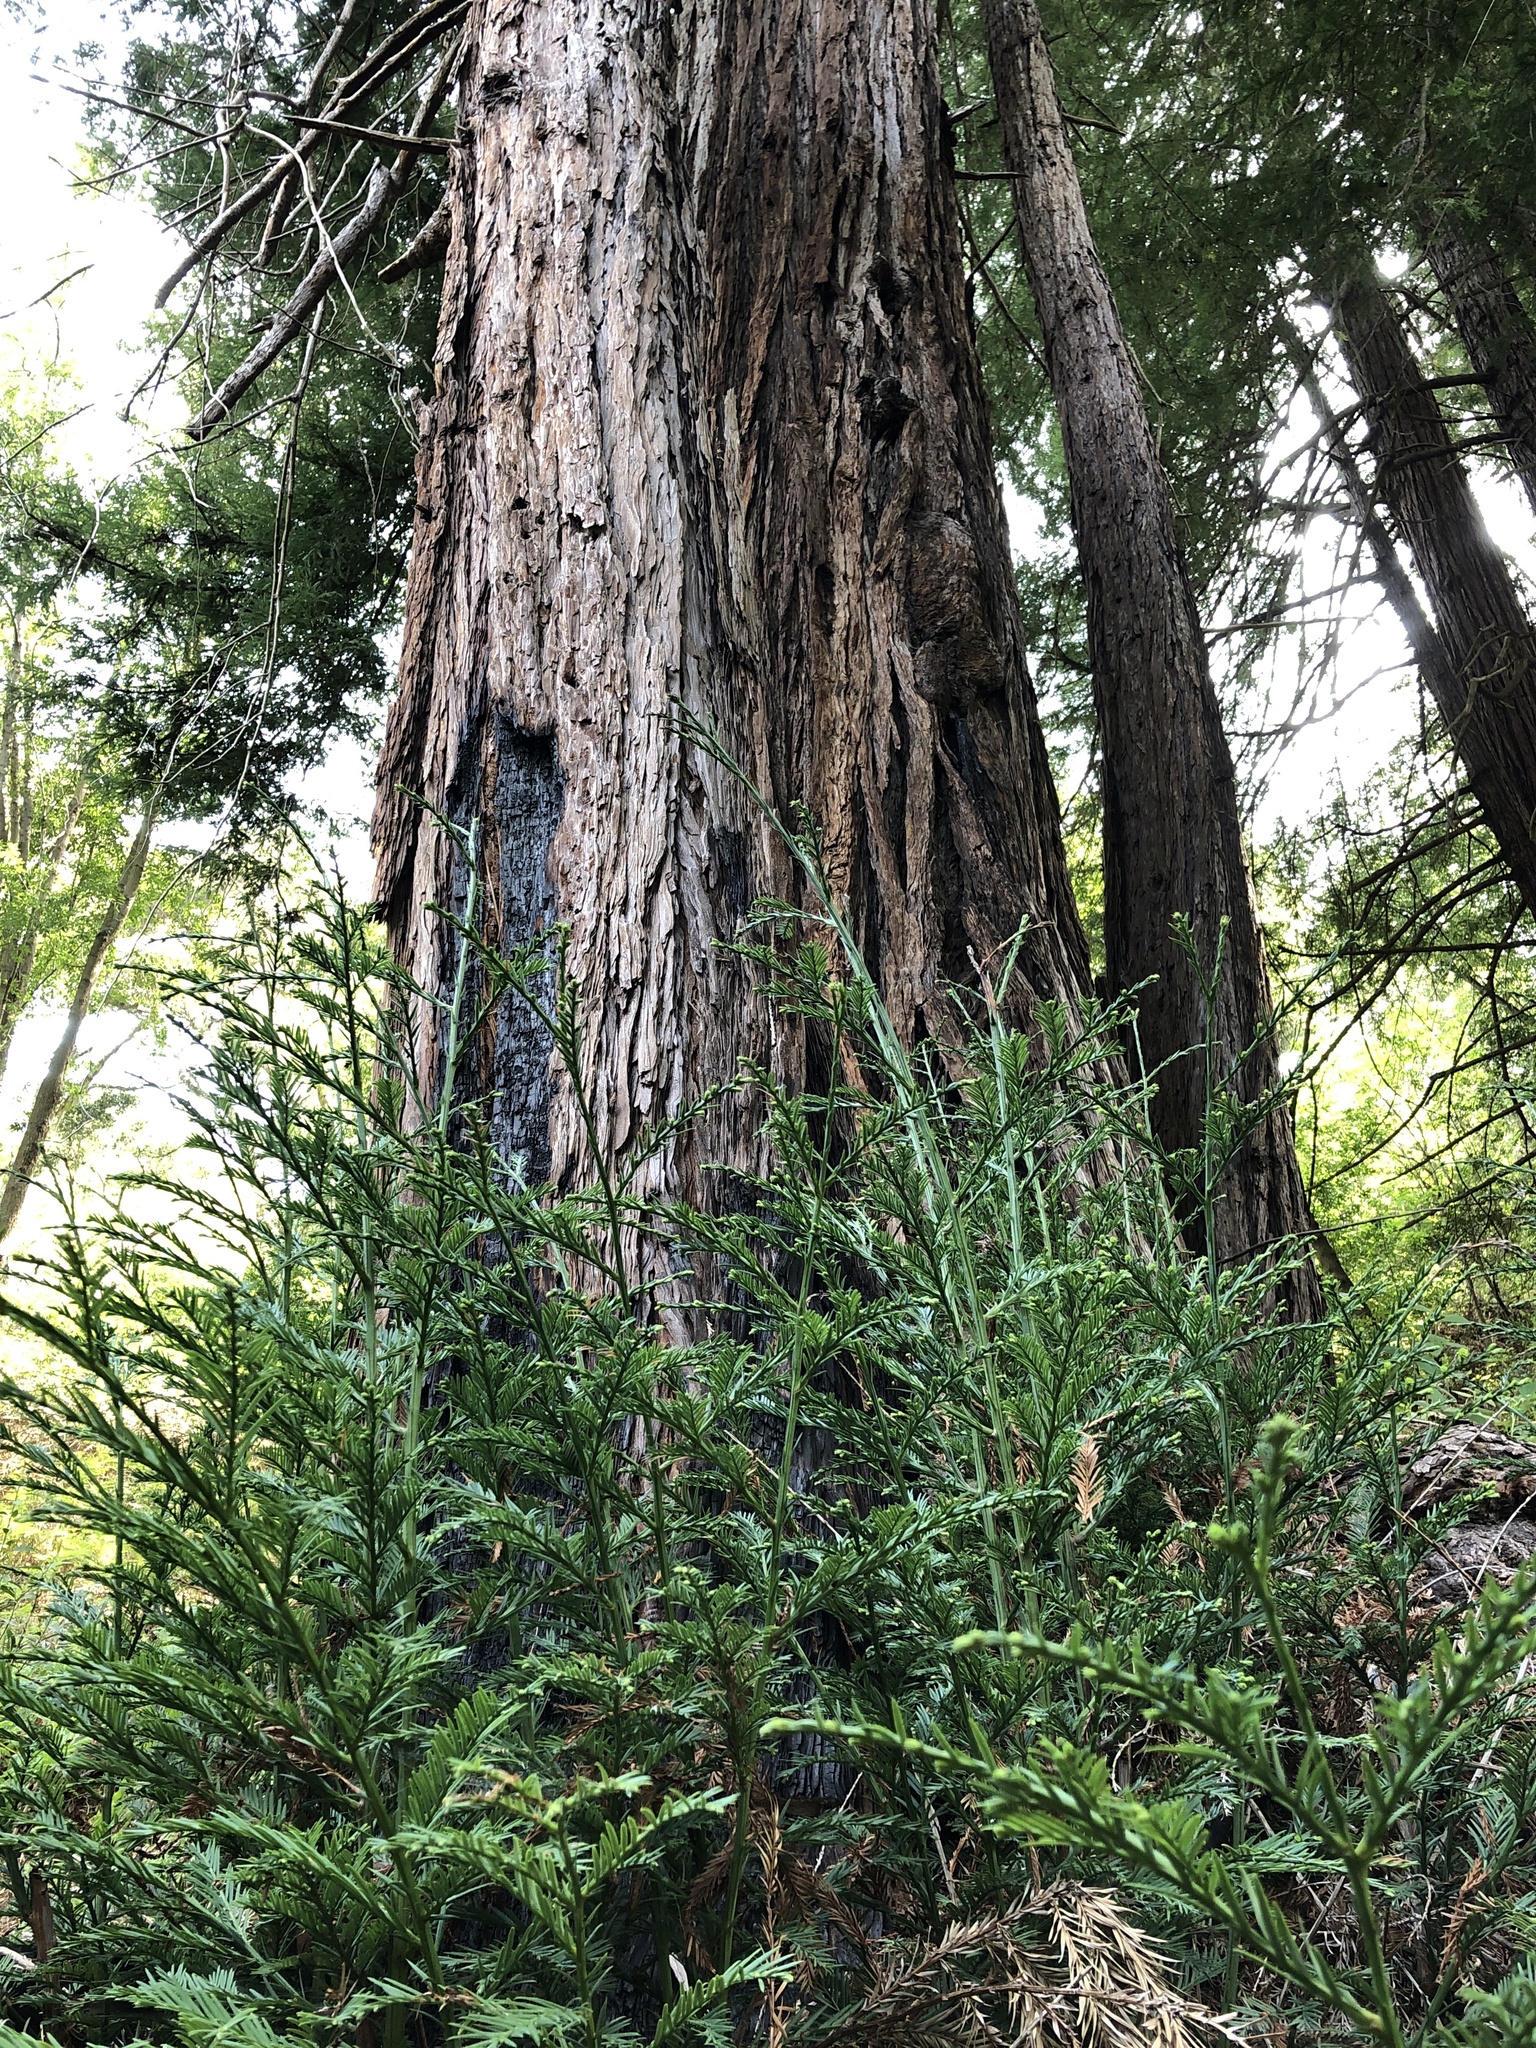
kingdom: Plantae
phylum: Tracheophyta
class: Pinopsida
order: Pinales
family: Cupressaceae
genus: Sequoia
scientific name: Sequoia sempervirens
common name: Coast redwood
